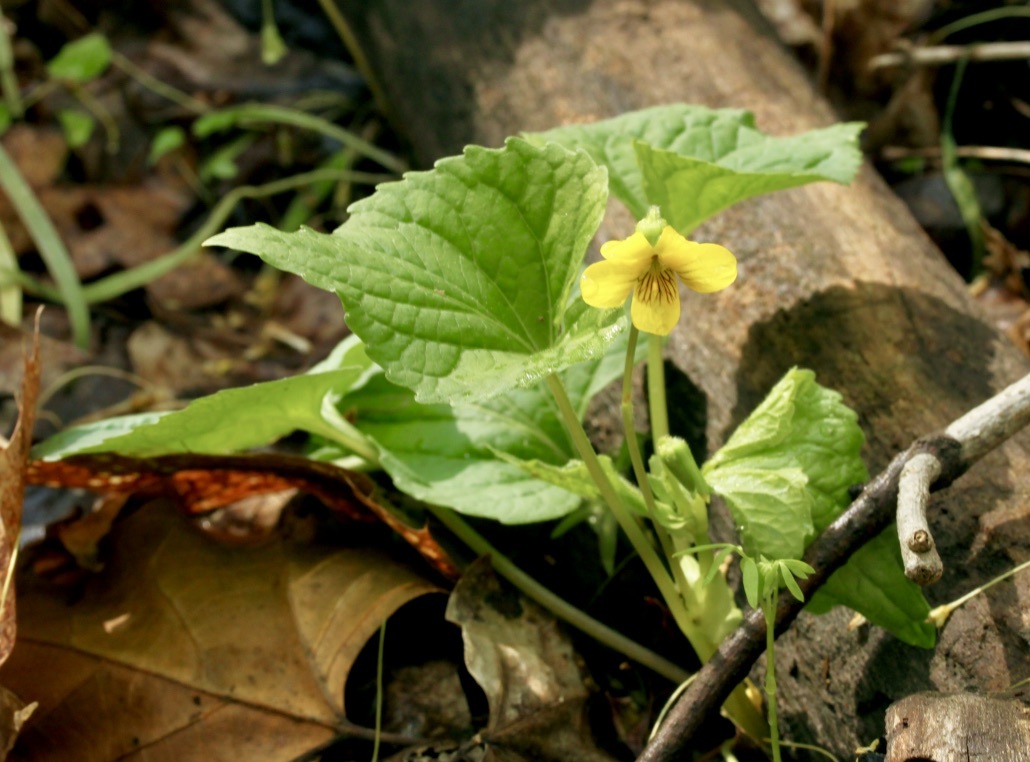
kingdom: Plantae
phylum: Tracheophyta
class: Magnoliopsida
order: Malpighiales
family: Violaceae
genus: Viola
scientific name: Viola eriocarpa
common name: Smooth yellow violet
